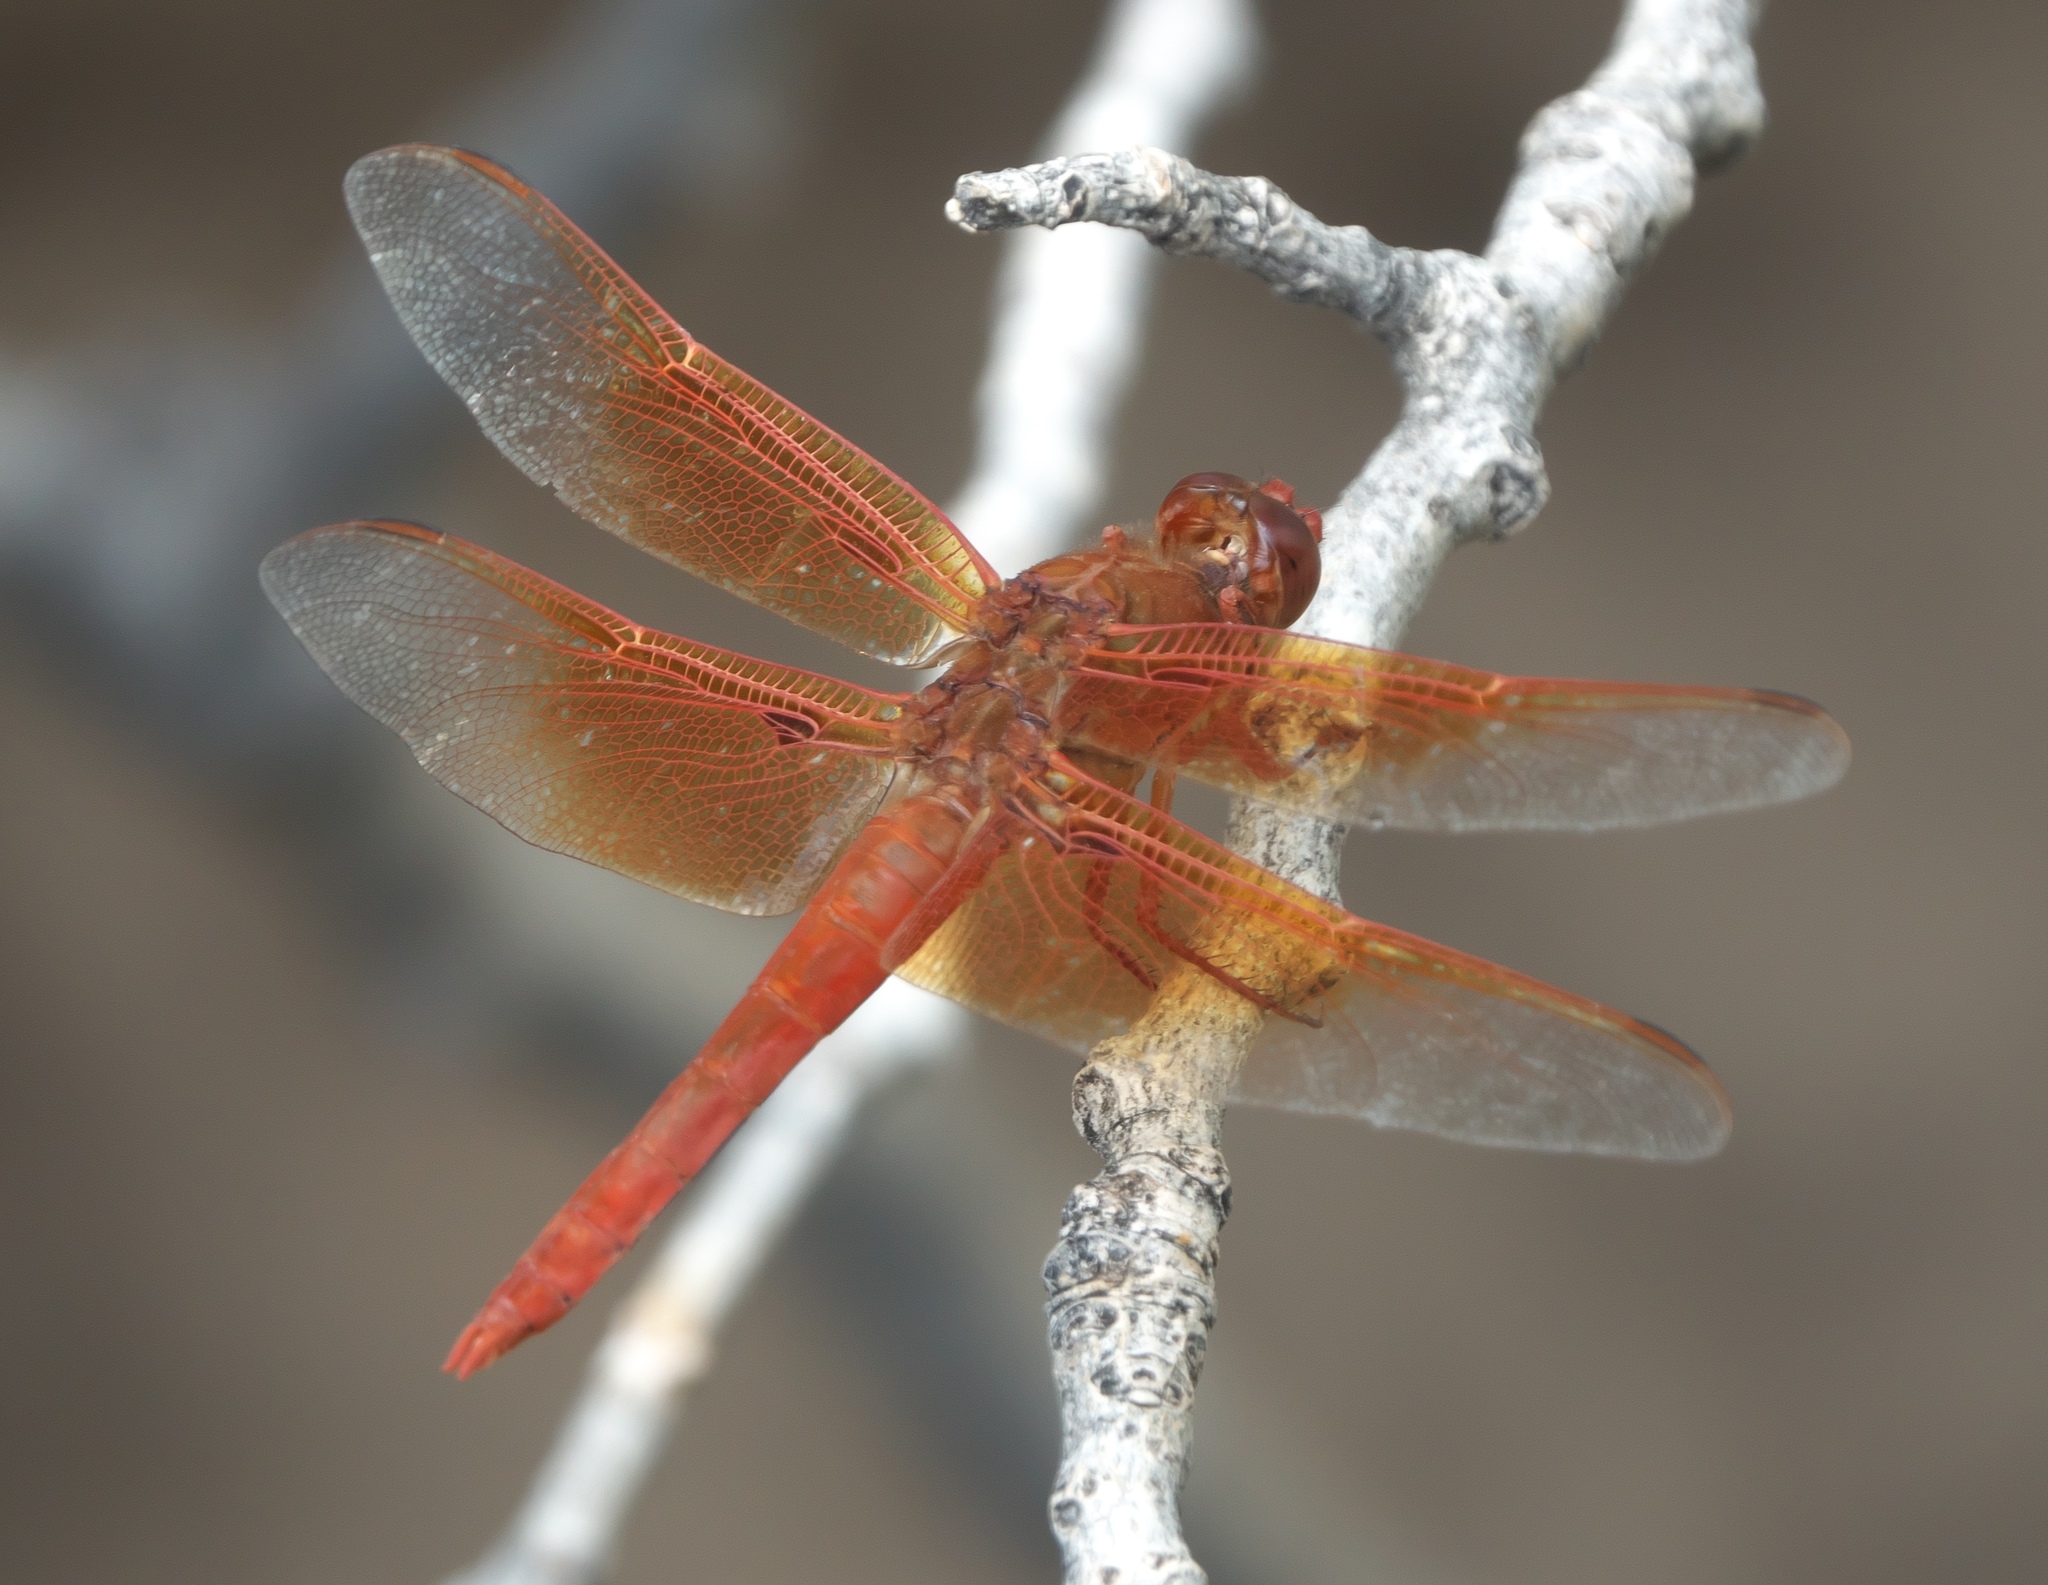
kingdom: Animalia
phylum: Arthropoda
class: Insecta
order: Odonata
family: Libellulidae
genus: Libellula
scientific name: Libellula saturata
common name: Flame skimmer
